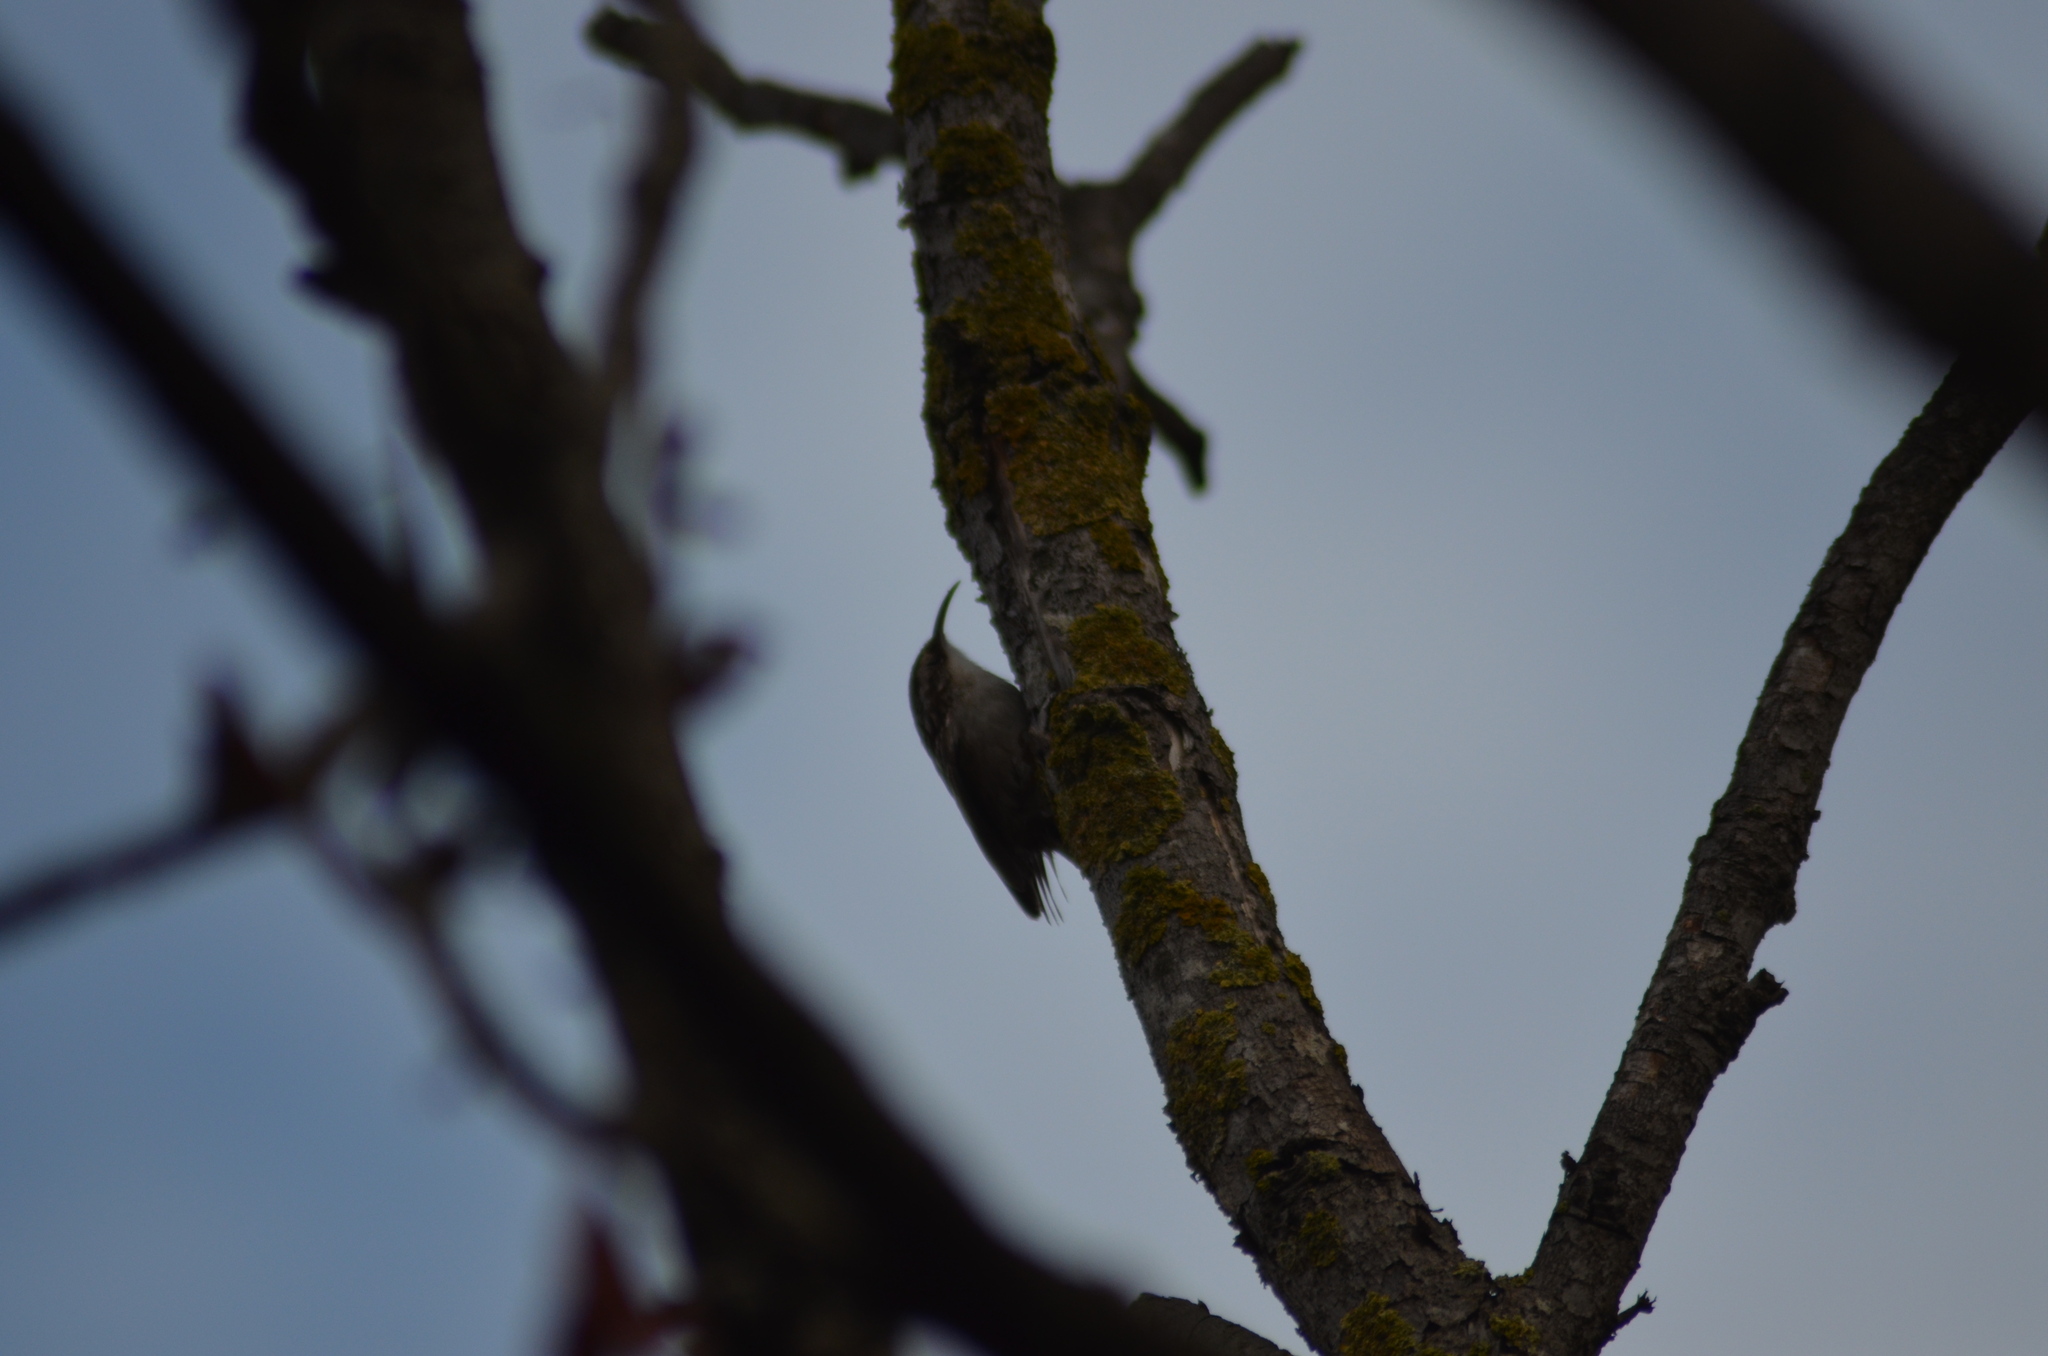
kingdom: Animalia
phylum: Chordata
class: Aves
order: Passeriformes
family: Certhiidae
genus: Certhia
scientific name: Certhia brachydactyla
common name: Short-toed treecreeper
